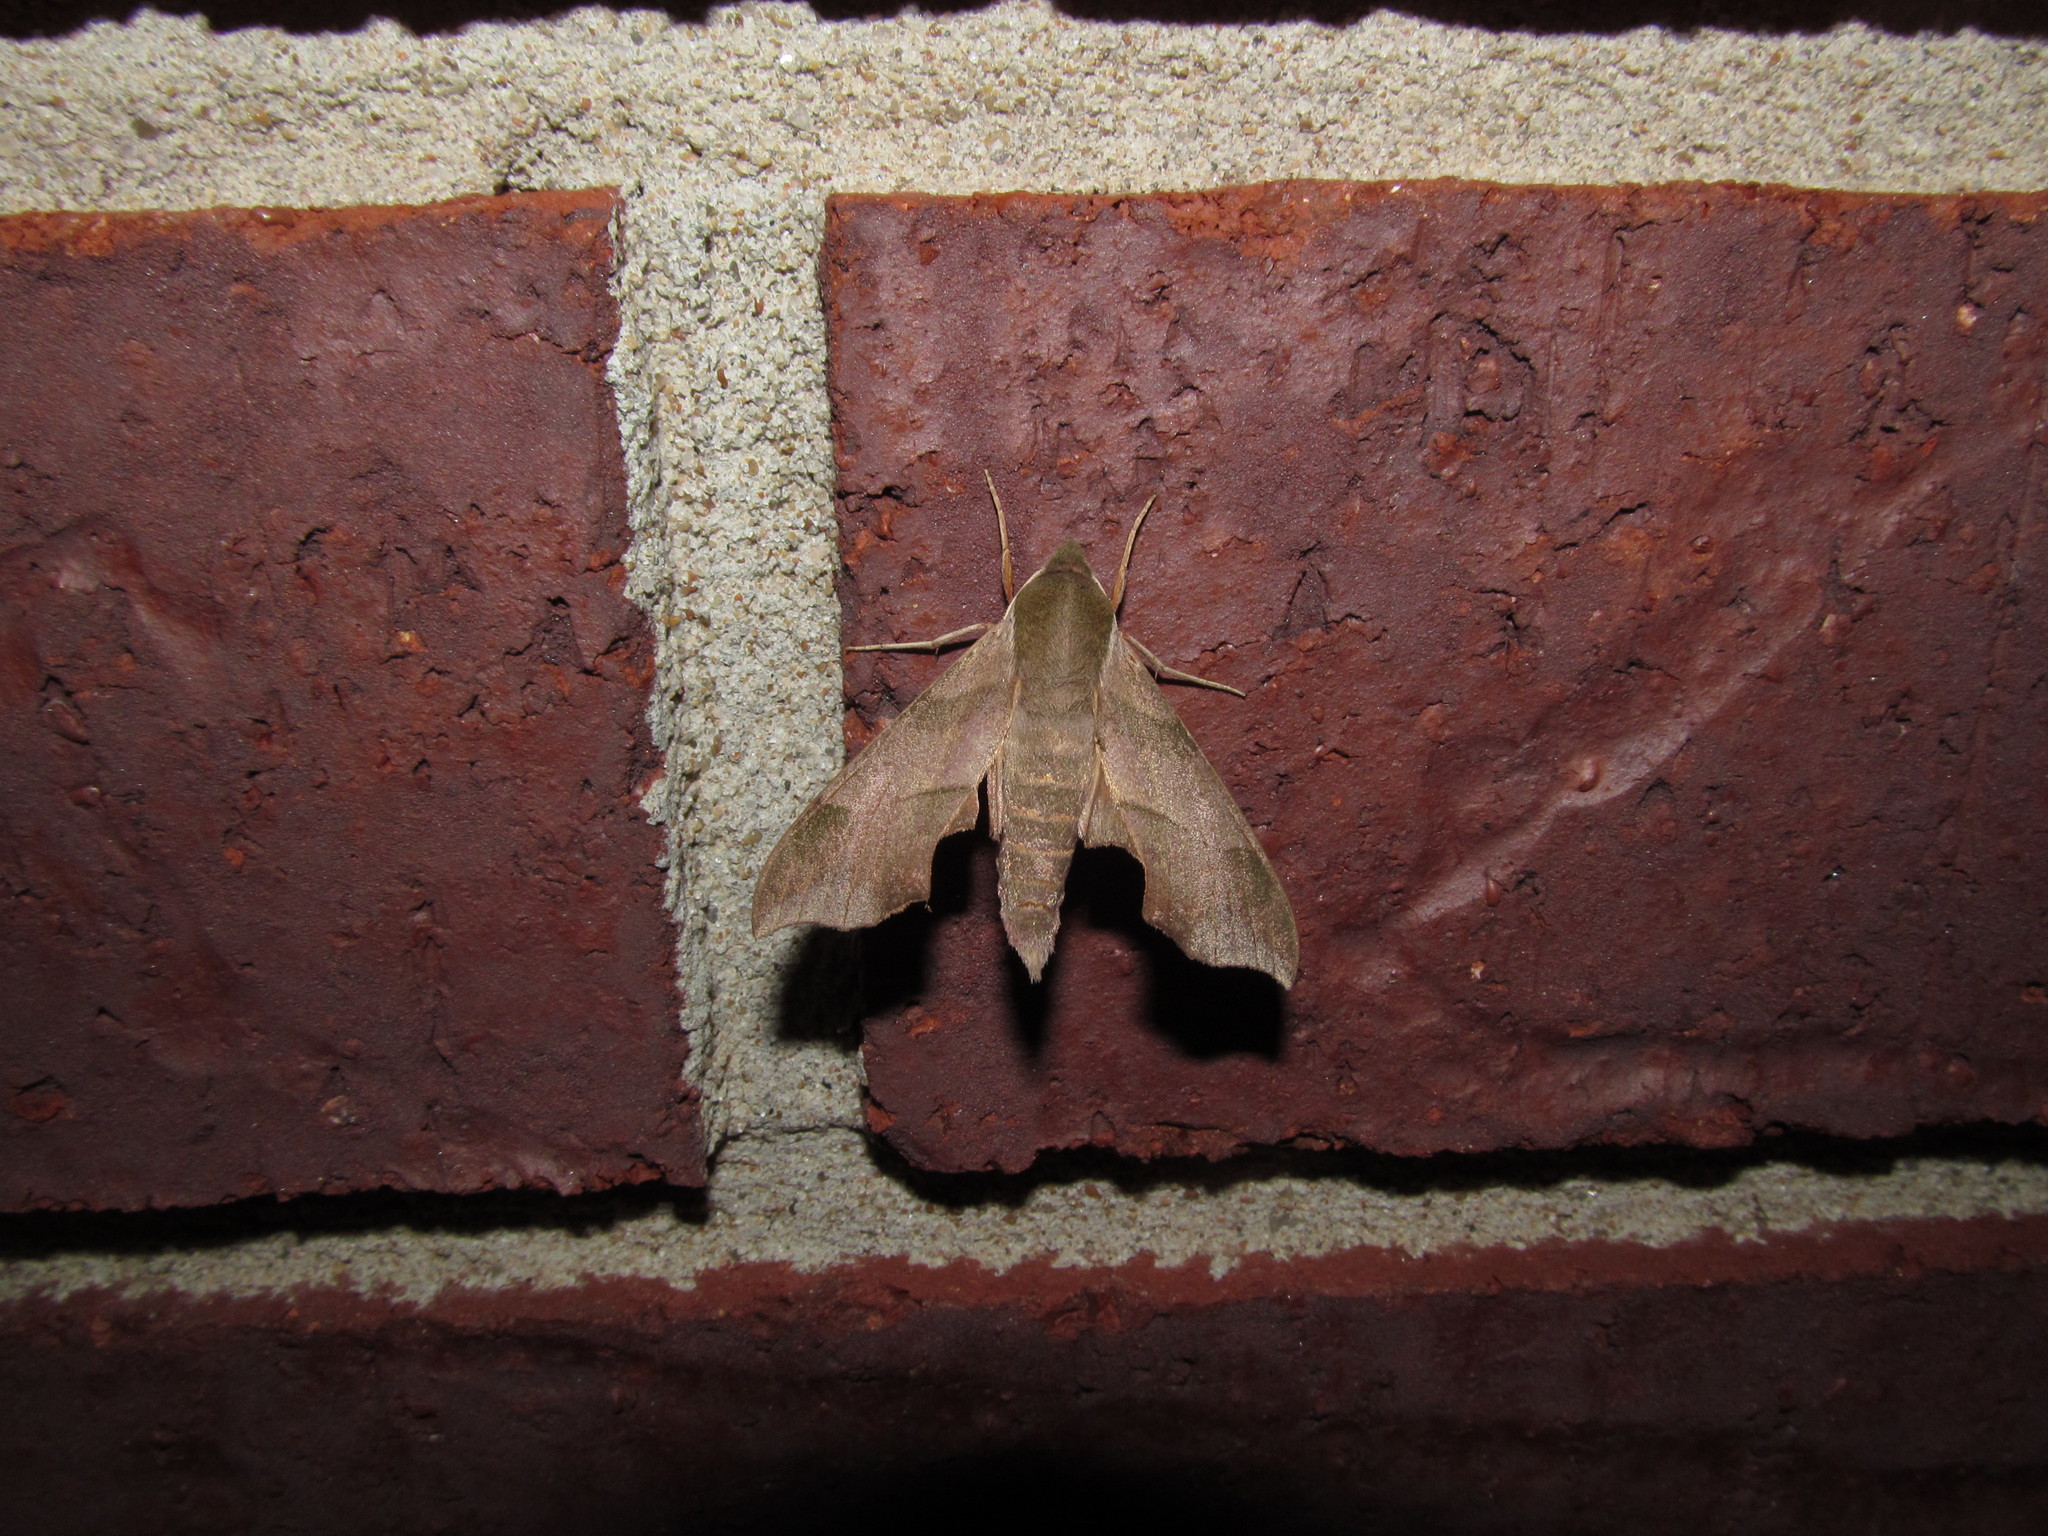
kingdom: Animalia
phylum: Arthropoda
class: Insecta
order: Lepidoptera
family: Sphingidae
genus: Darapsa
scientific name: Darapsa myron
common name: Hog sphinx
